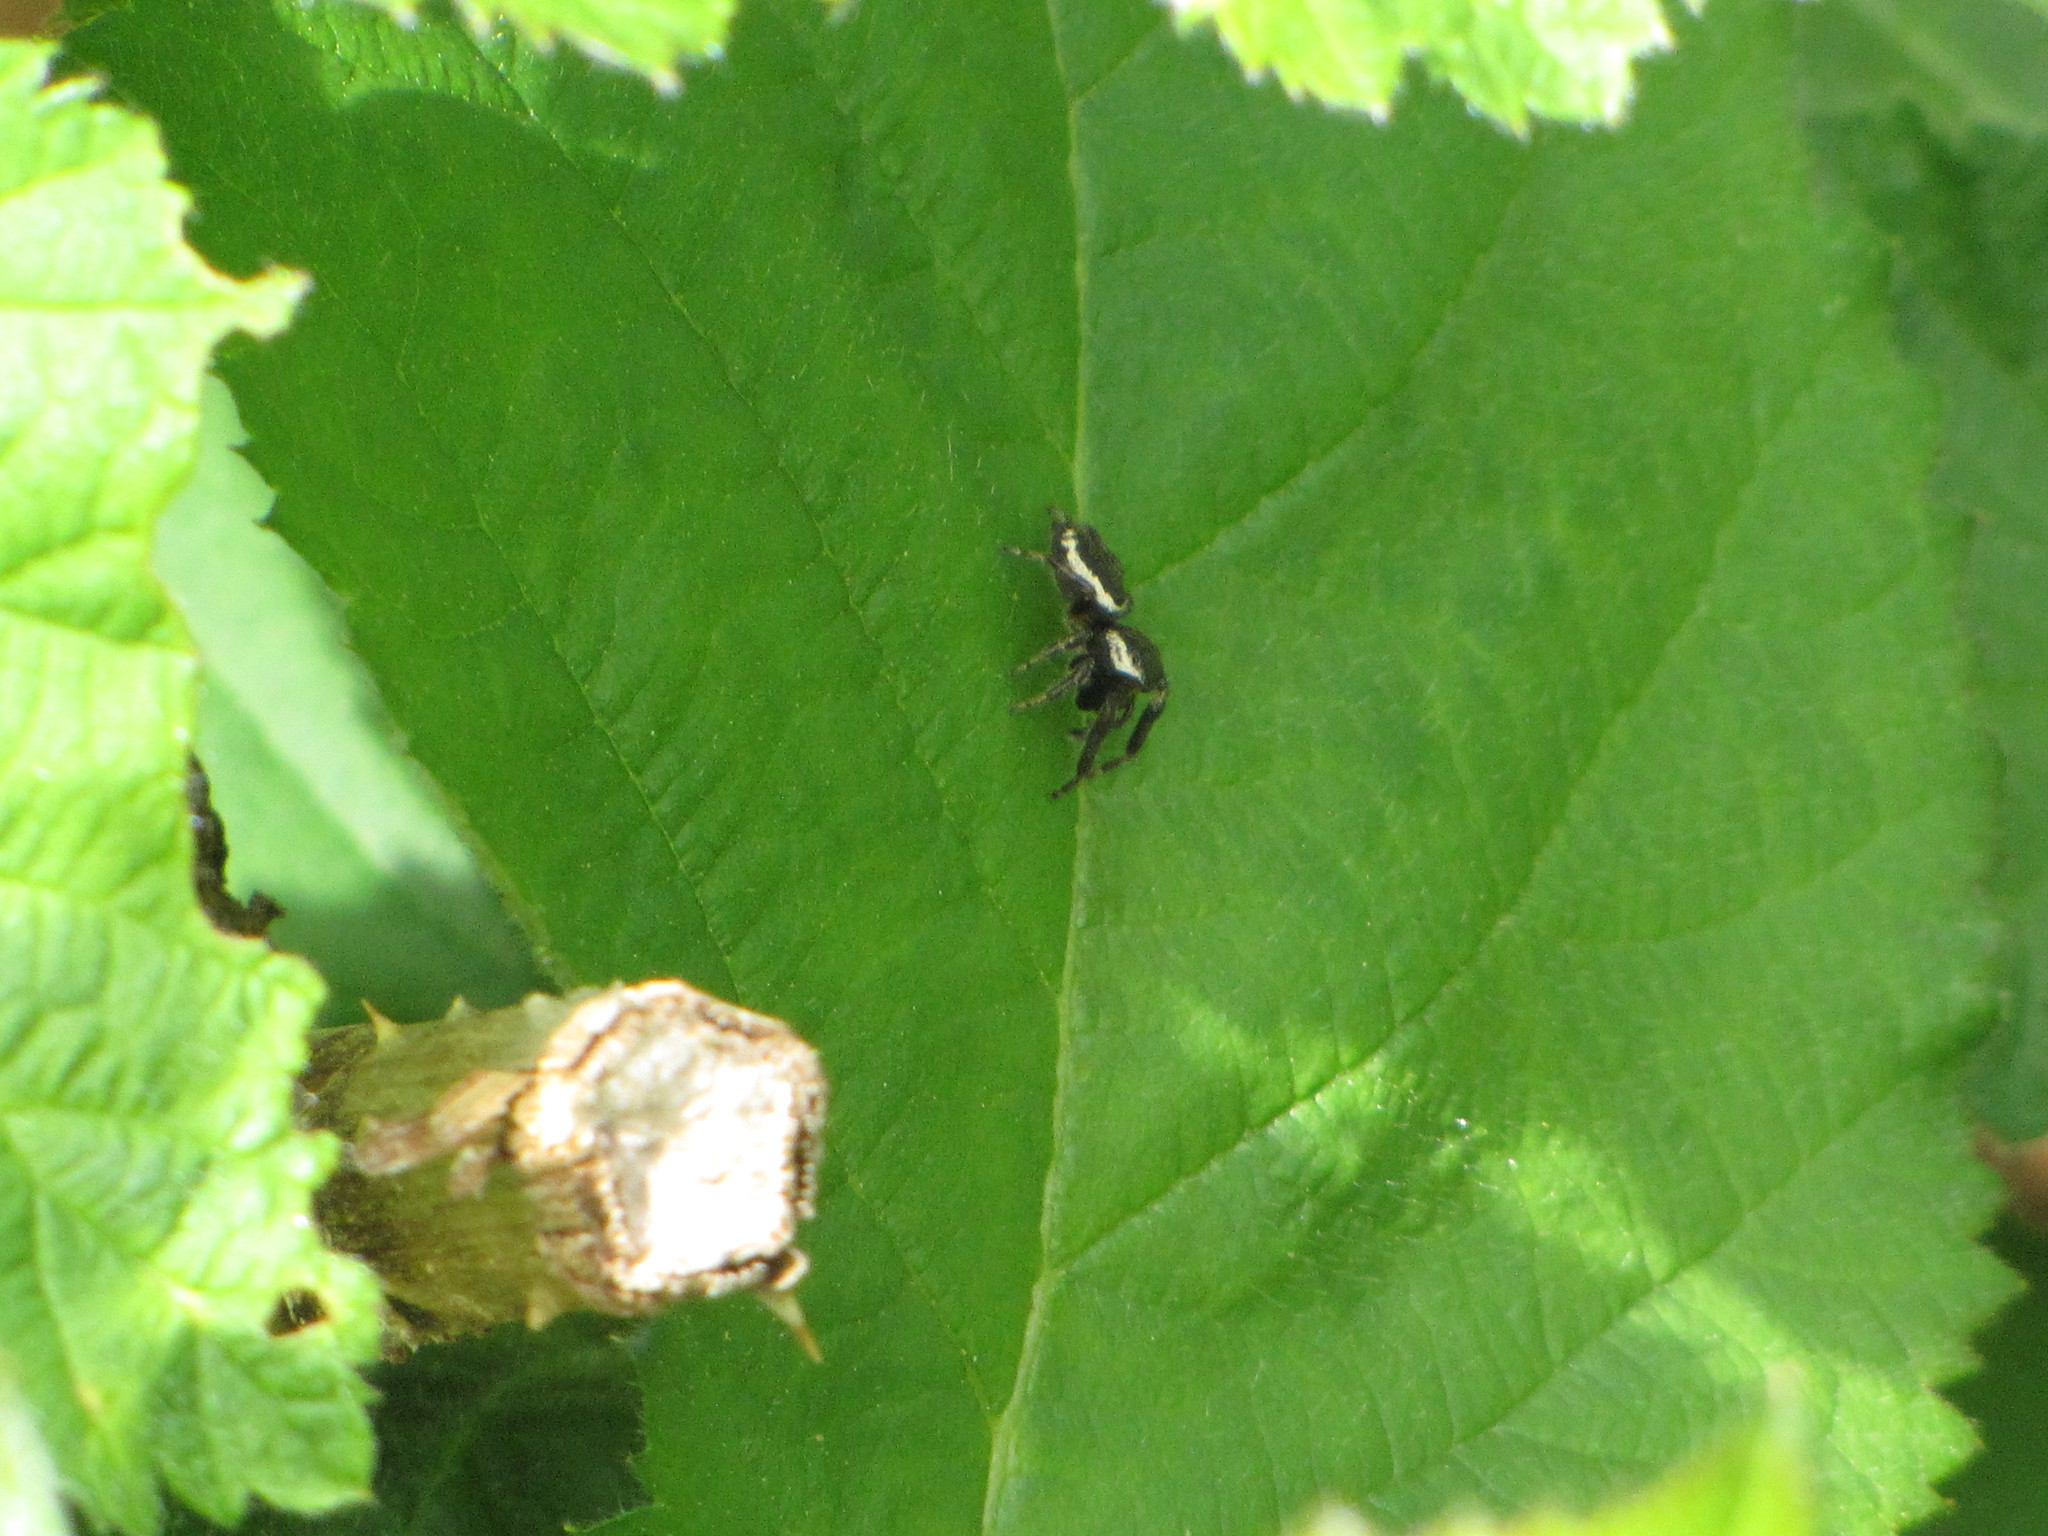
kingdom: Animalia
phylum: Arthropoda
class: Arachnida
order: Araneae
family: Salticidae
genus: Eris
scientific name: Eris militaris
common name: Bronze jumper
